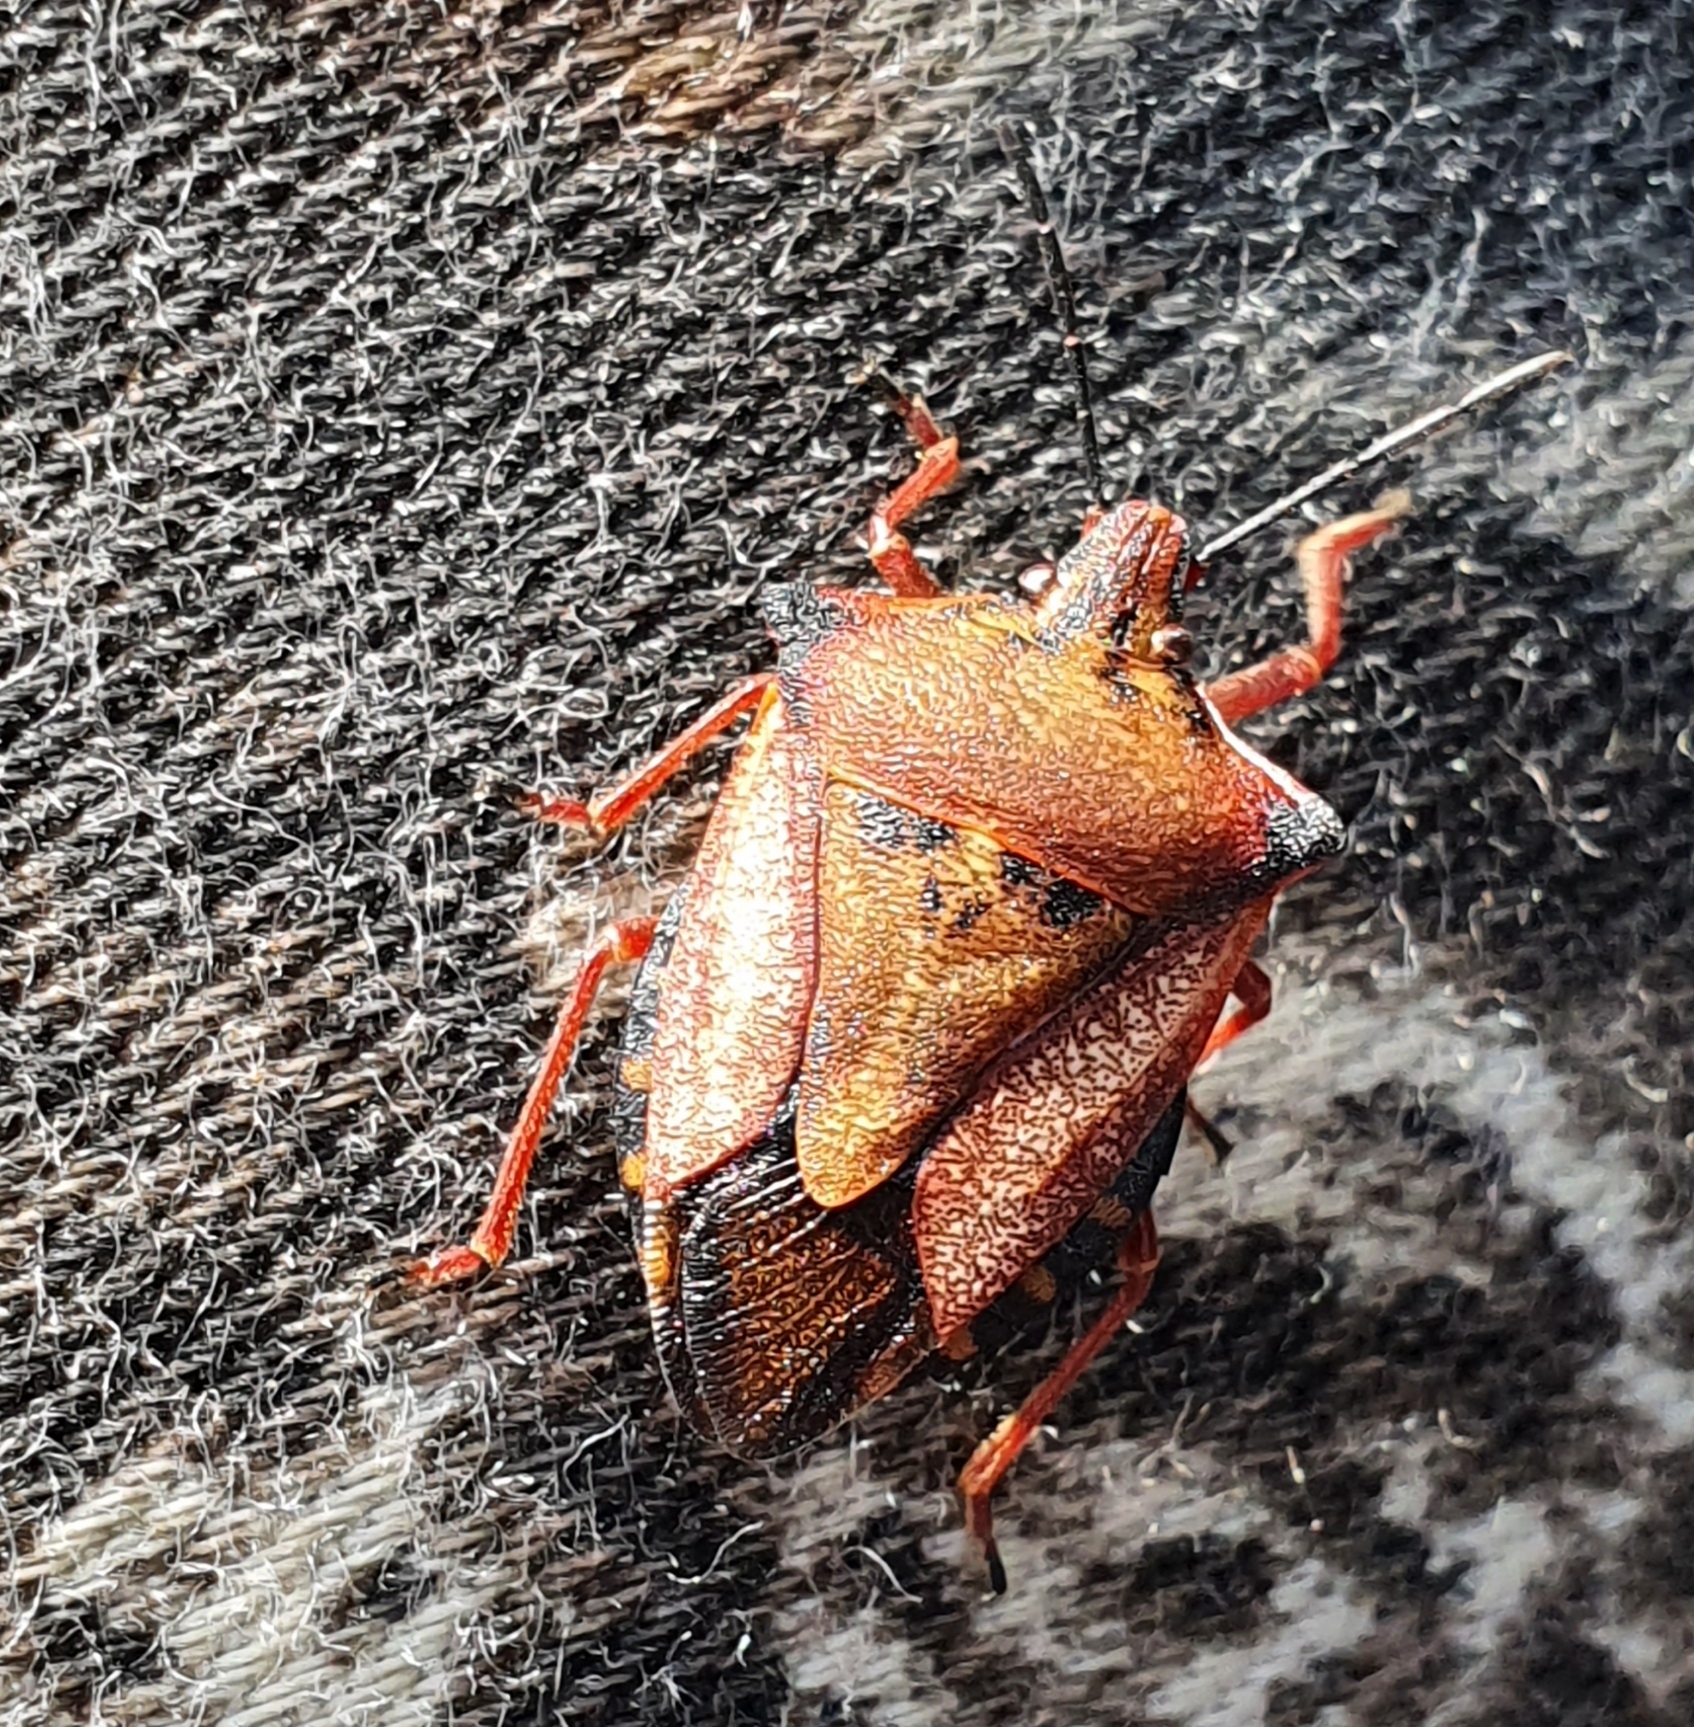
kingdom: Animalia
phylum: Arthropoda
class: Insecta
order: Hemiptera
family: Pentatomidae
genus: Carpocoris
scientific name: Carpocoris mediterraneus
